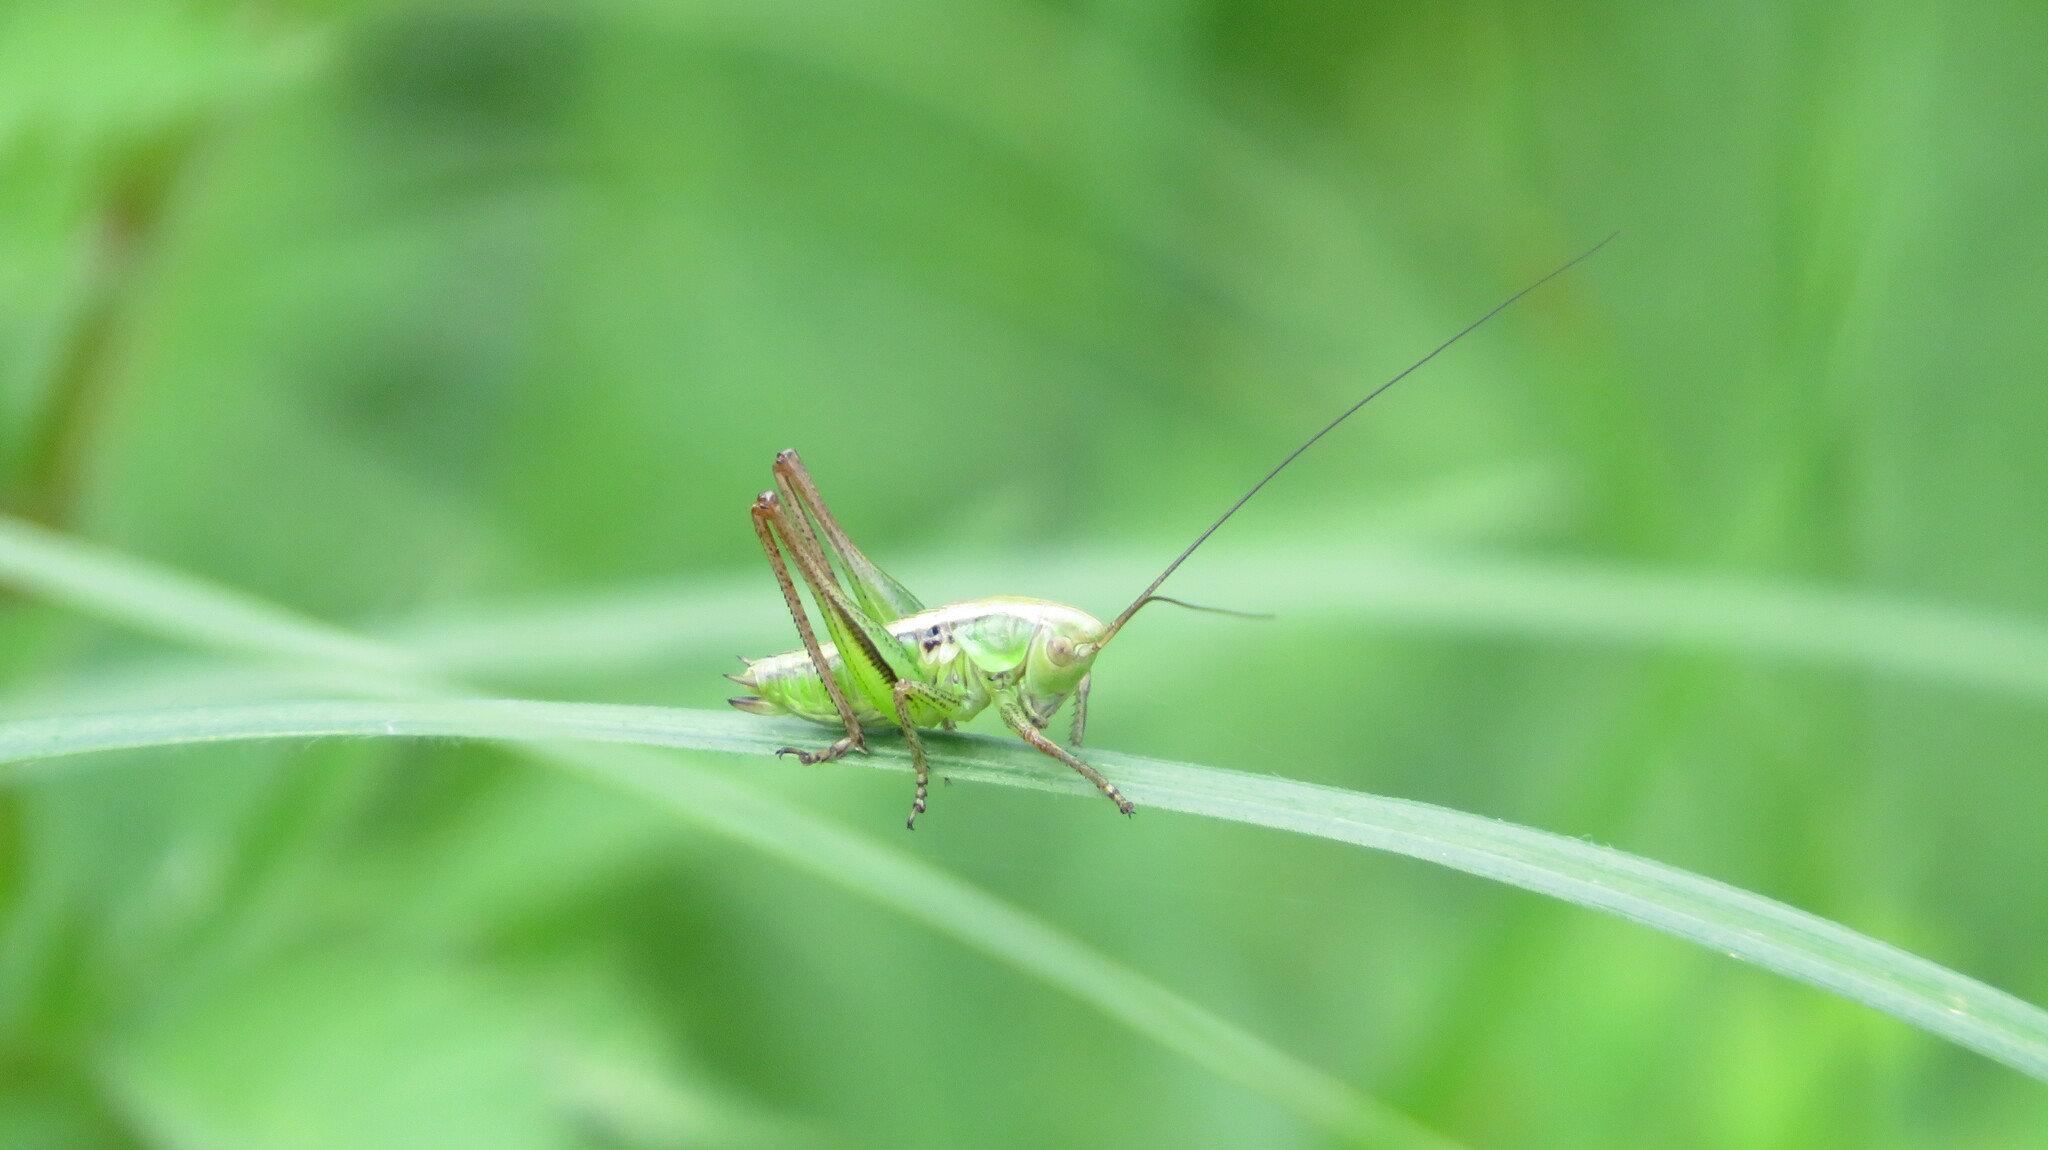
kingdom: Animalia
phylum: Arthropoda
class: Insecta
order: Orthoptera
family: Tettigoniidae
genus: Roeseliana
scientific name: Roeseliana roeselii
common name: Roesel's bush cricket
